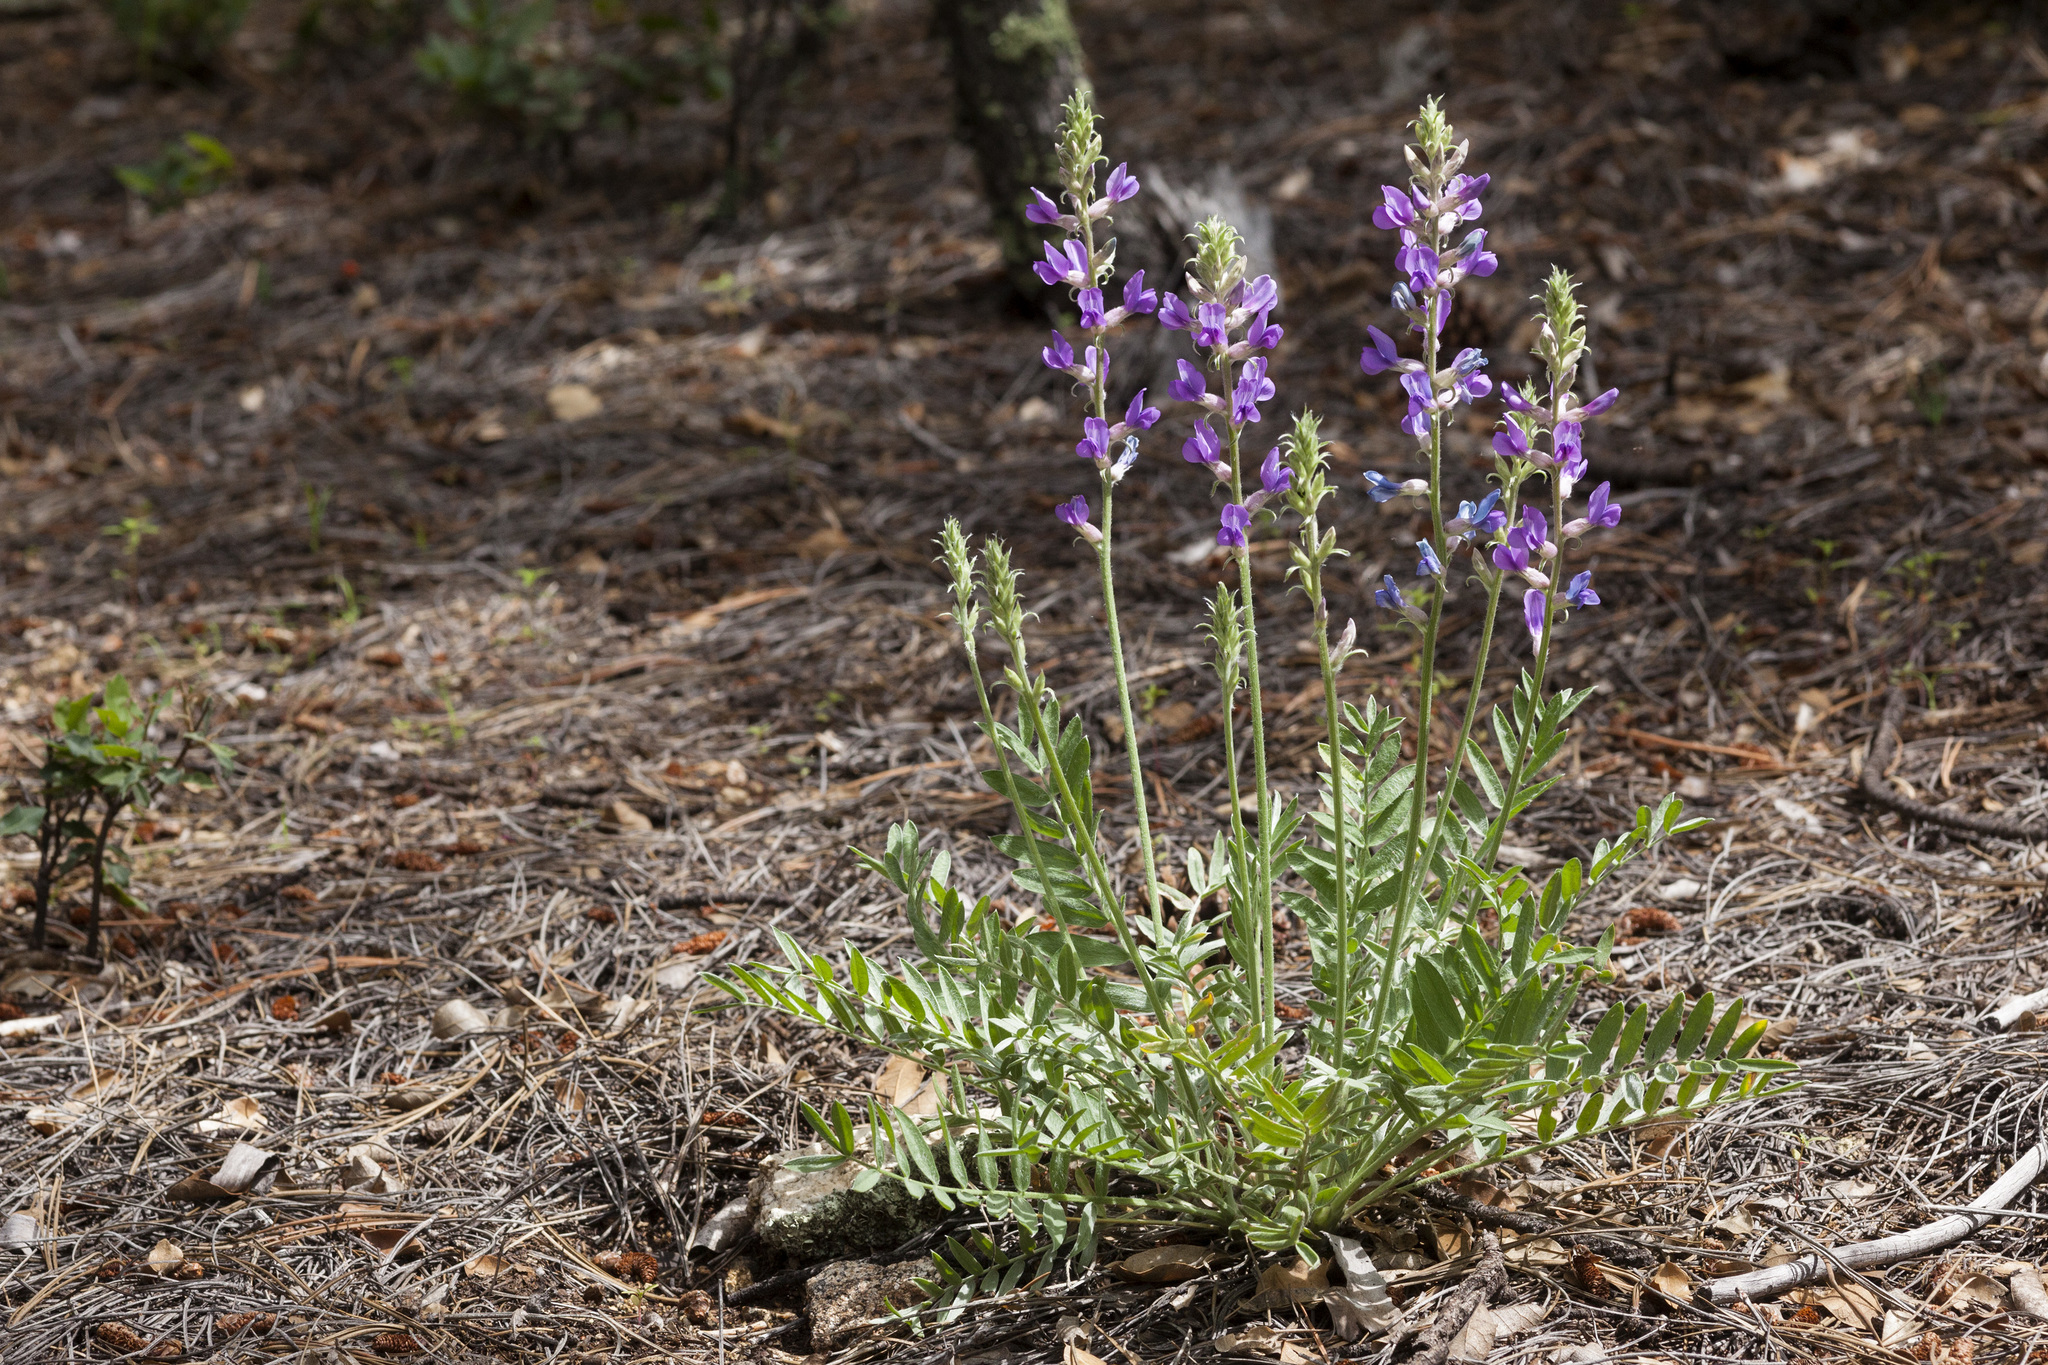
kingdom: Plantae
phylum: Tracheophyta
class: Magnoliopsida
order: Fabales
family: Fabaceae
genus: Oxytropis
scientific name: Oxytropis lambertii
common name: Purple locoweed
